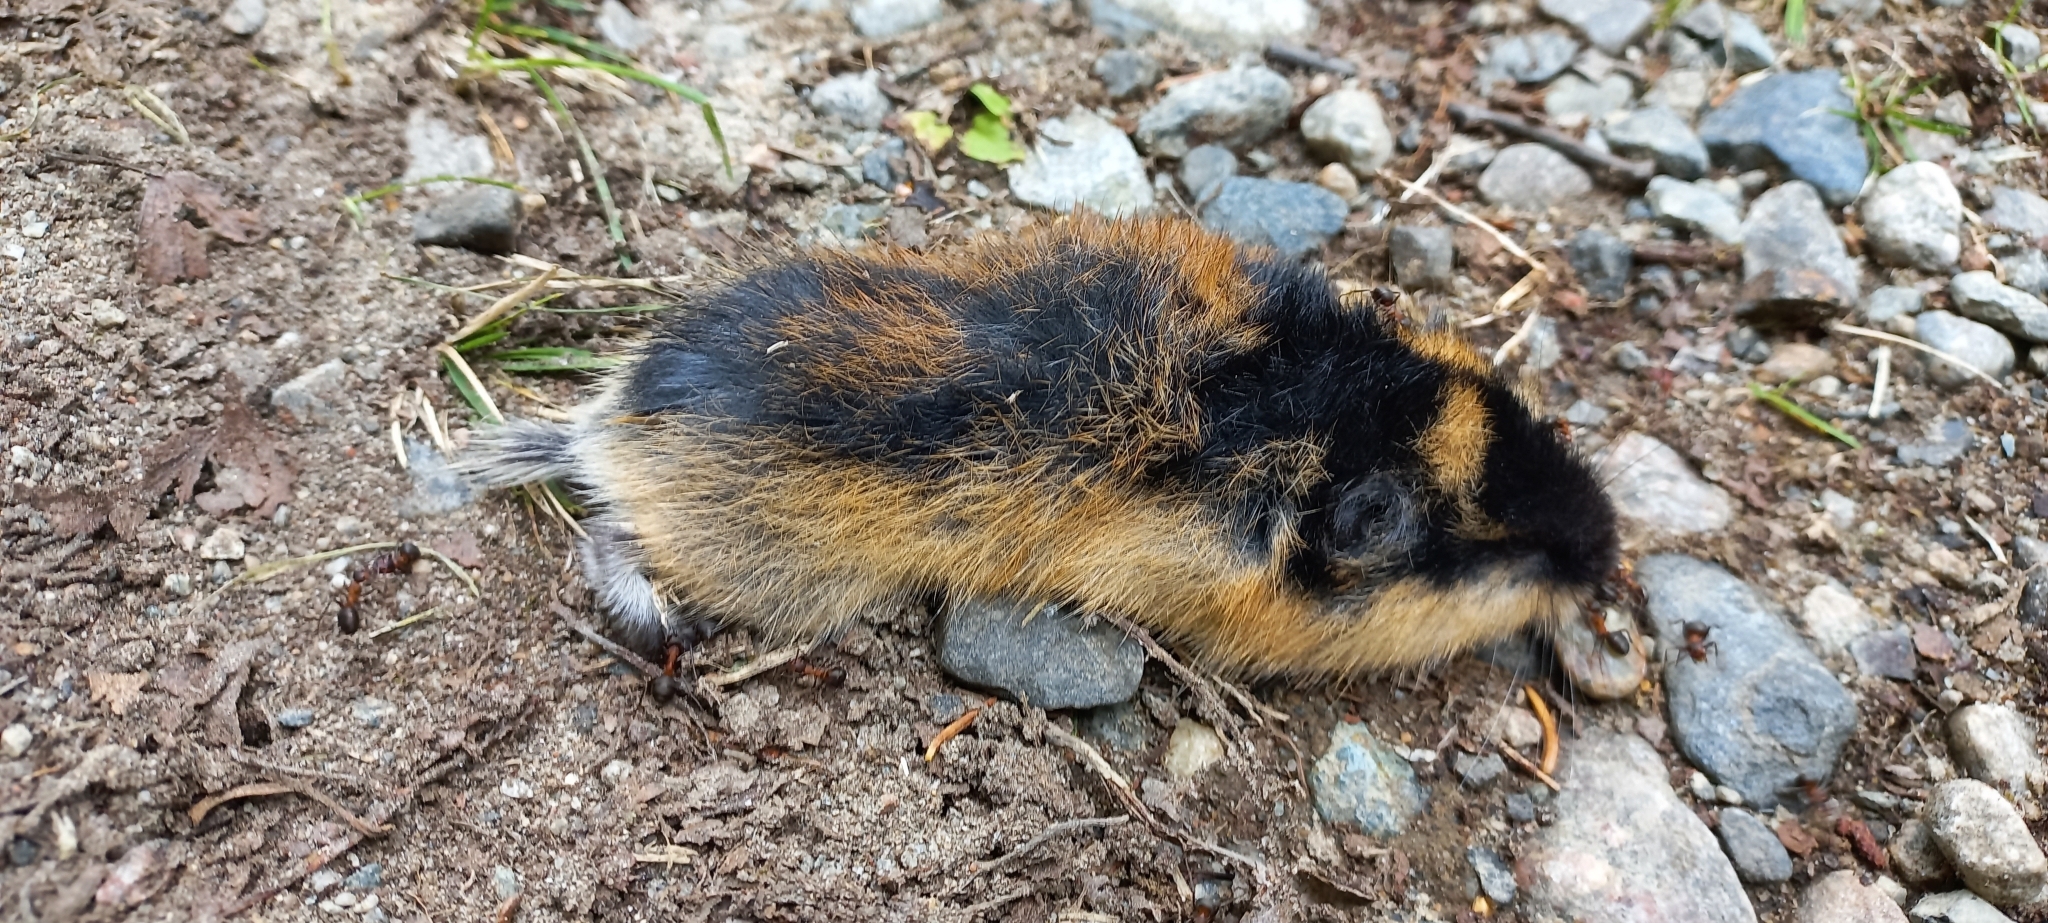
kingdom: Animalia
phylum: Chordata
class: Mammalia
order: Rodentia
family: Cricetidae
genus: Lemmus
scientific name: Lemmus lemmus
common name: Norway lemming
